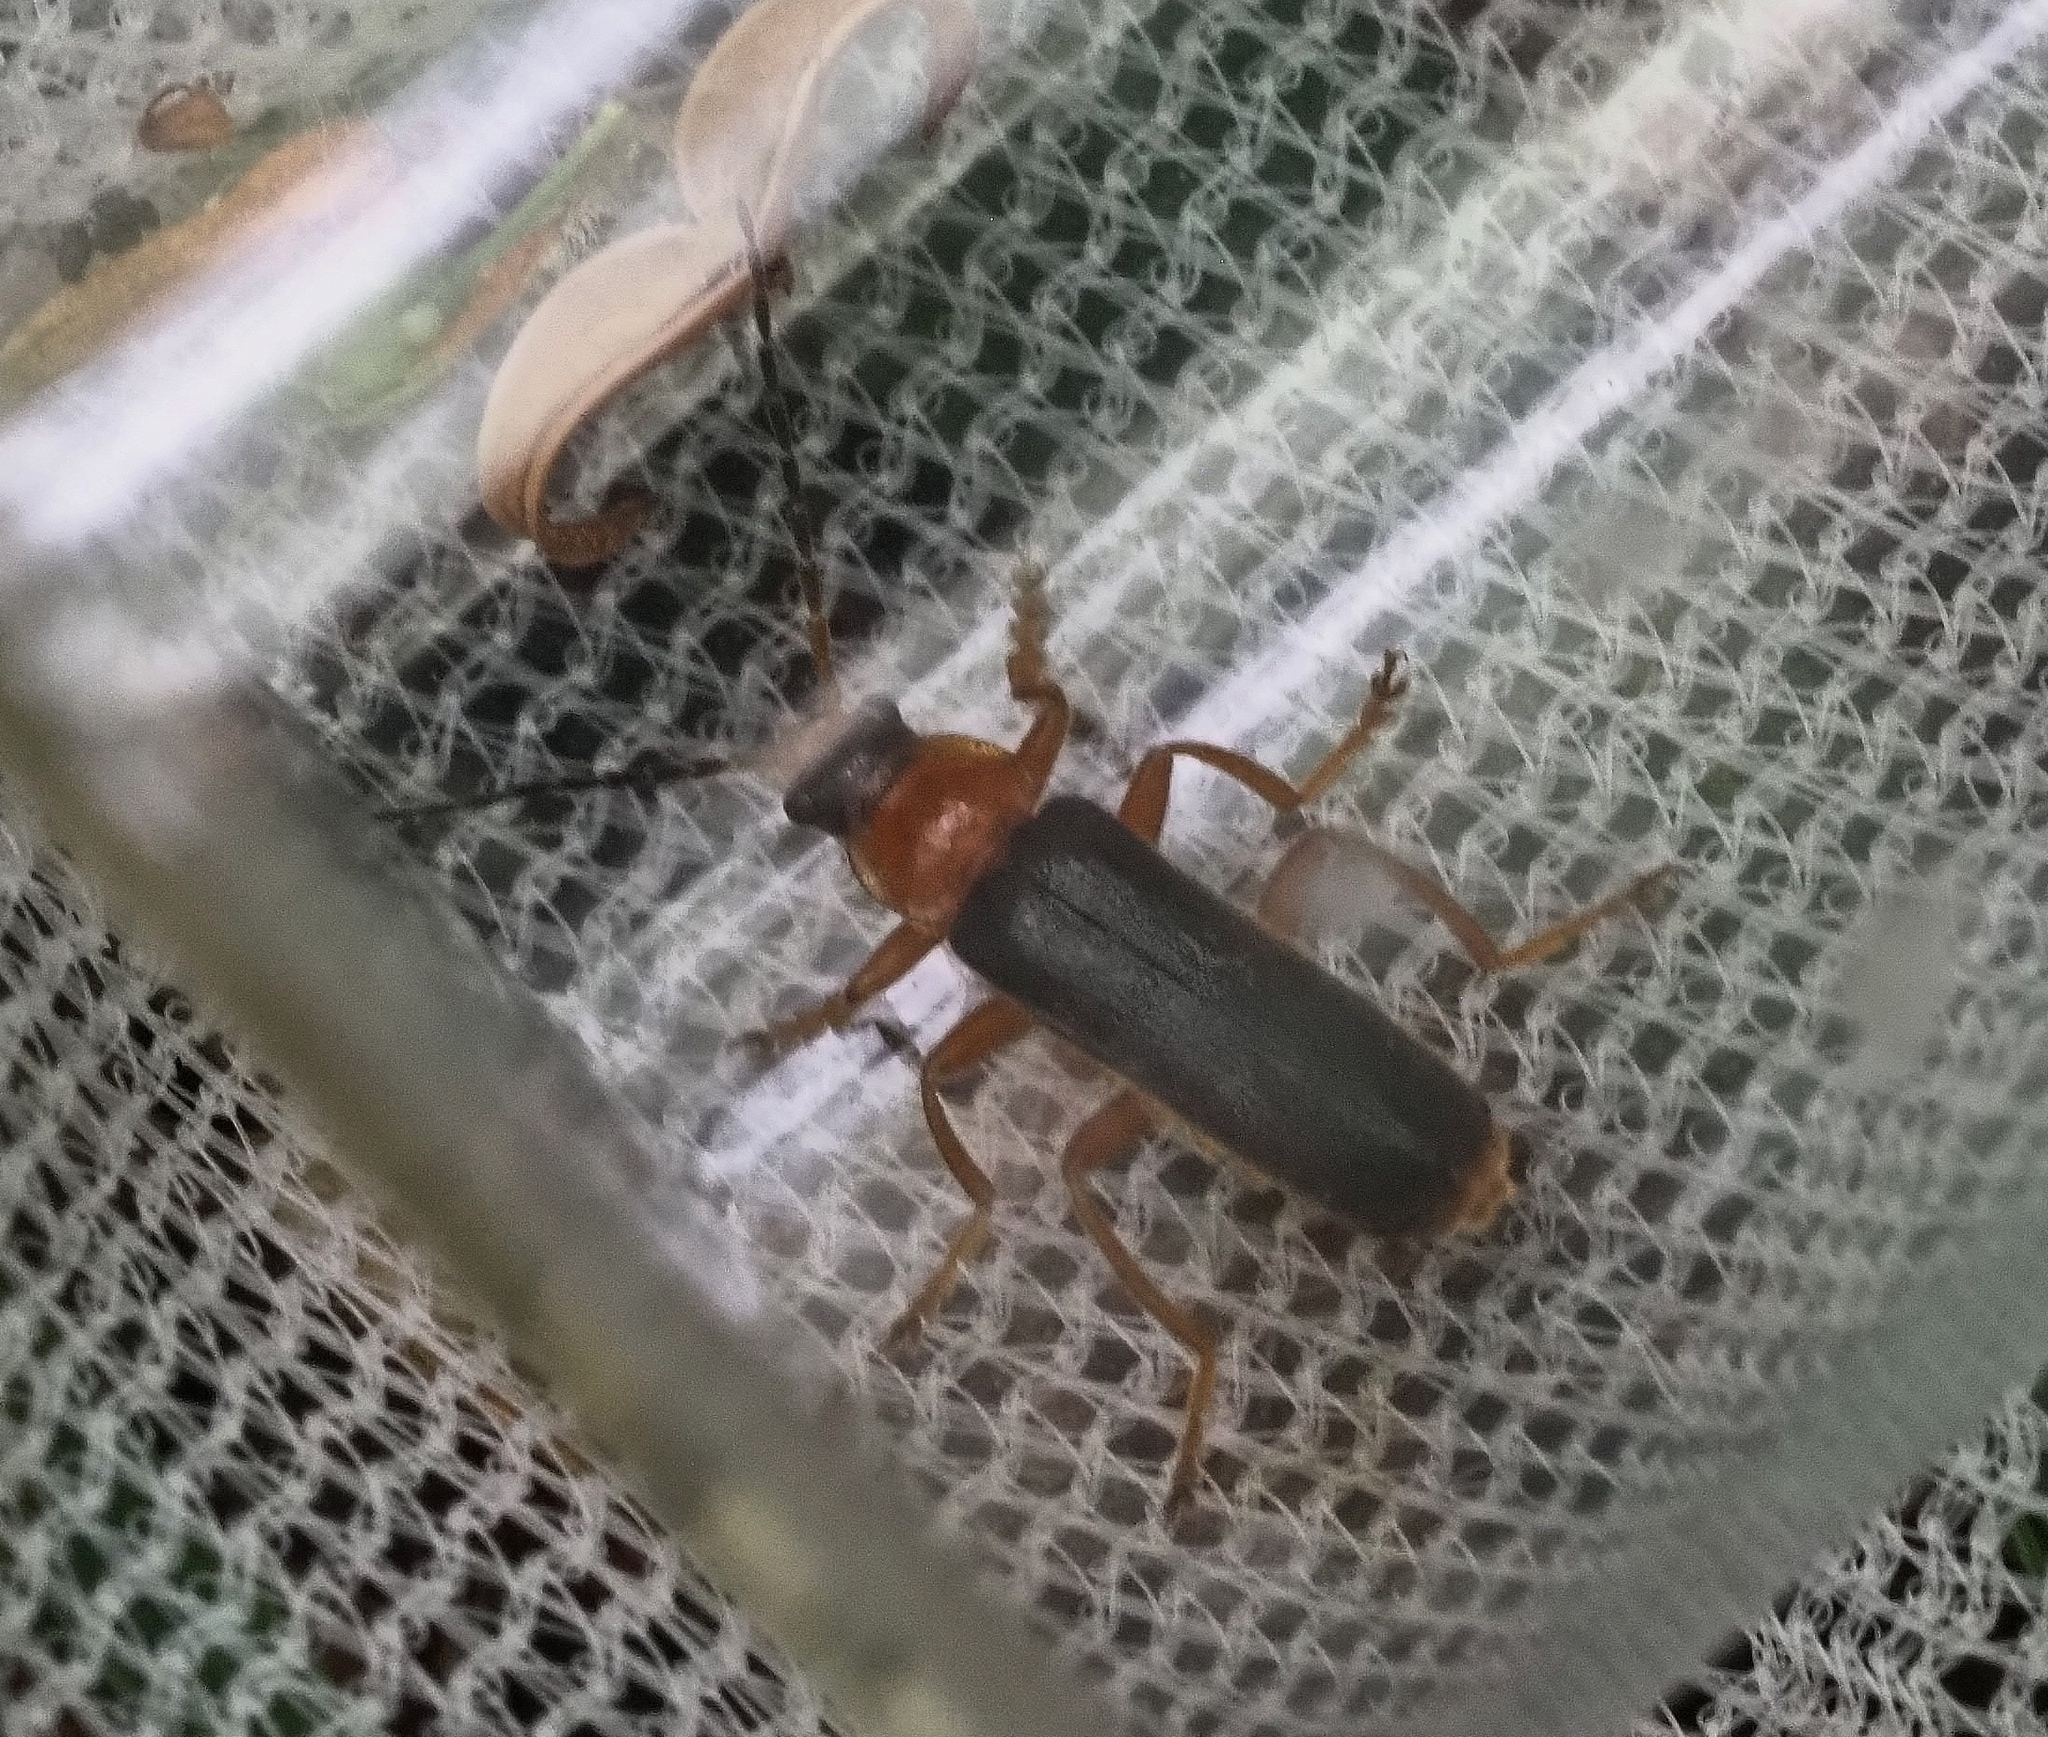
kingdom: Animalia
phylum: Arthropoda
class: Insecta
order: Coleoptera
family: Cantharidae
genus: Cantharis
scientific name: Cantharis nigra
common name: Cantharid beetle
